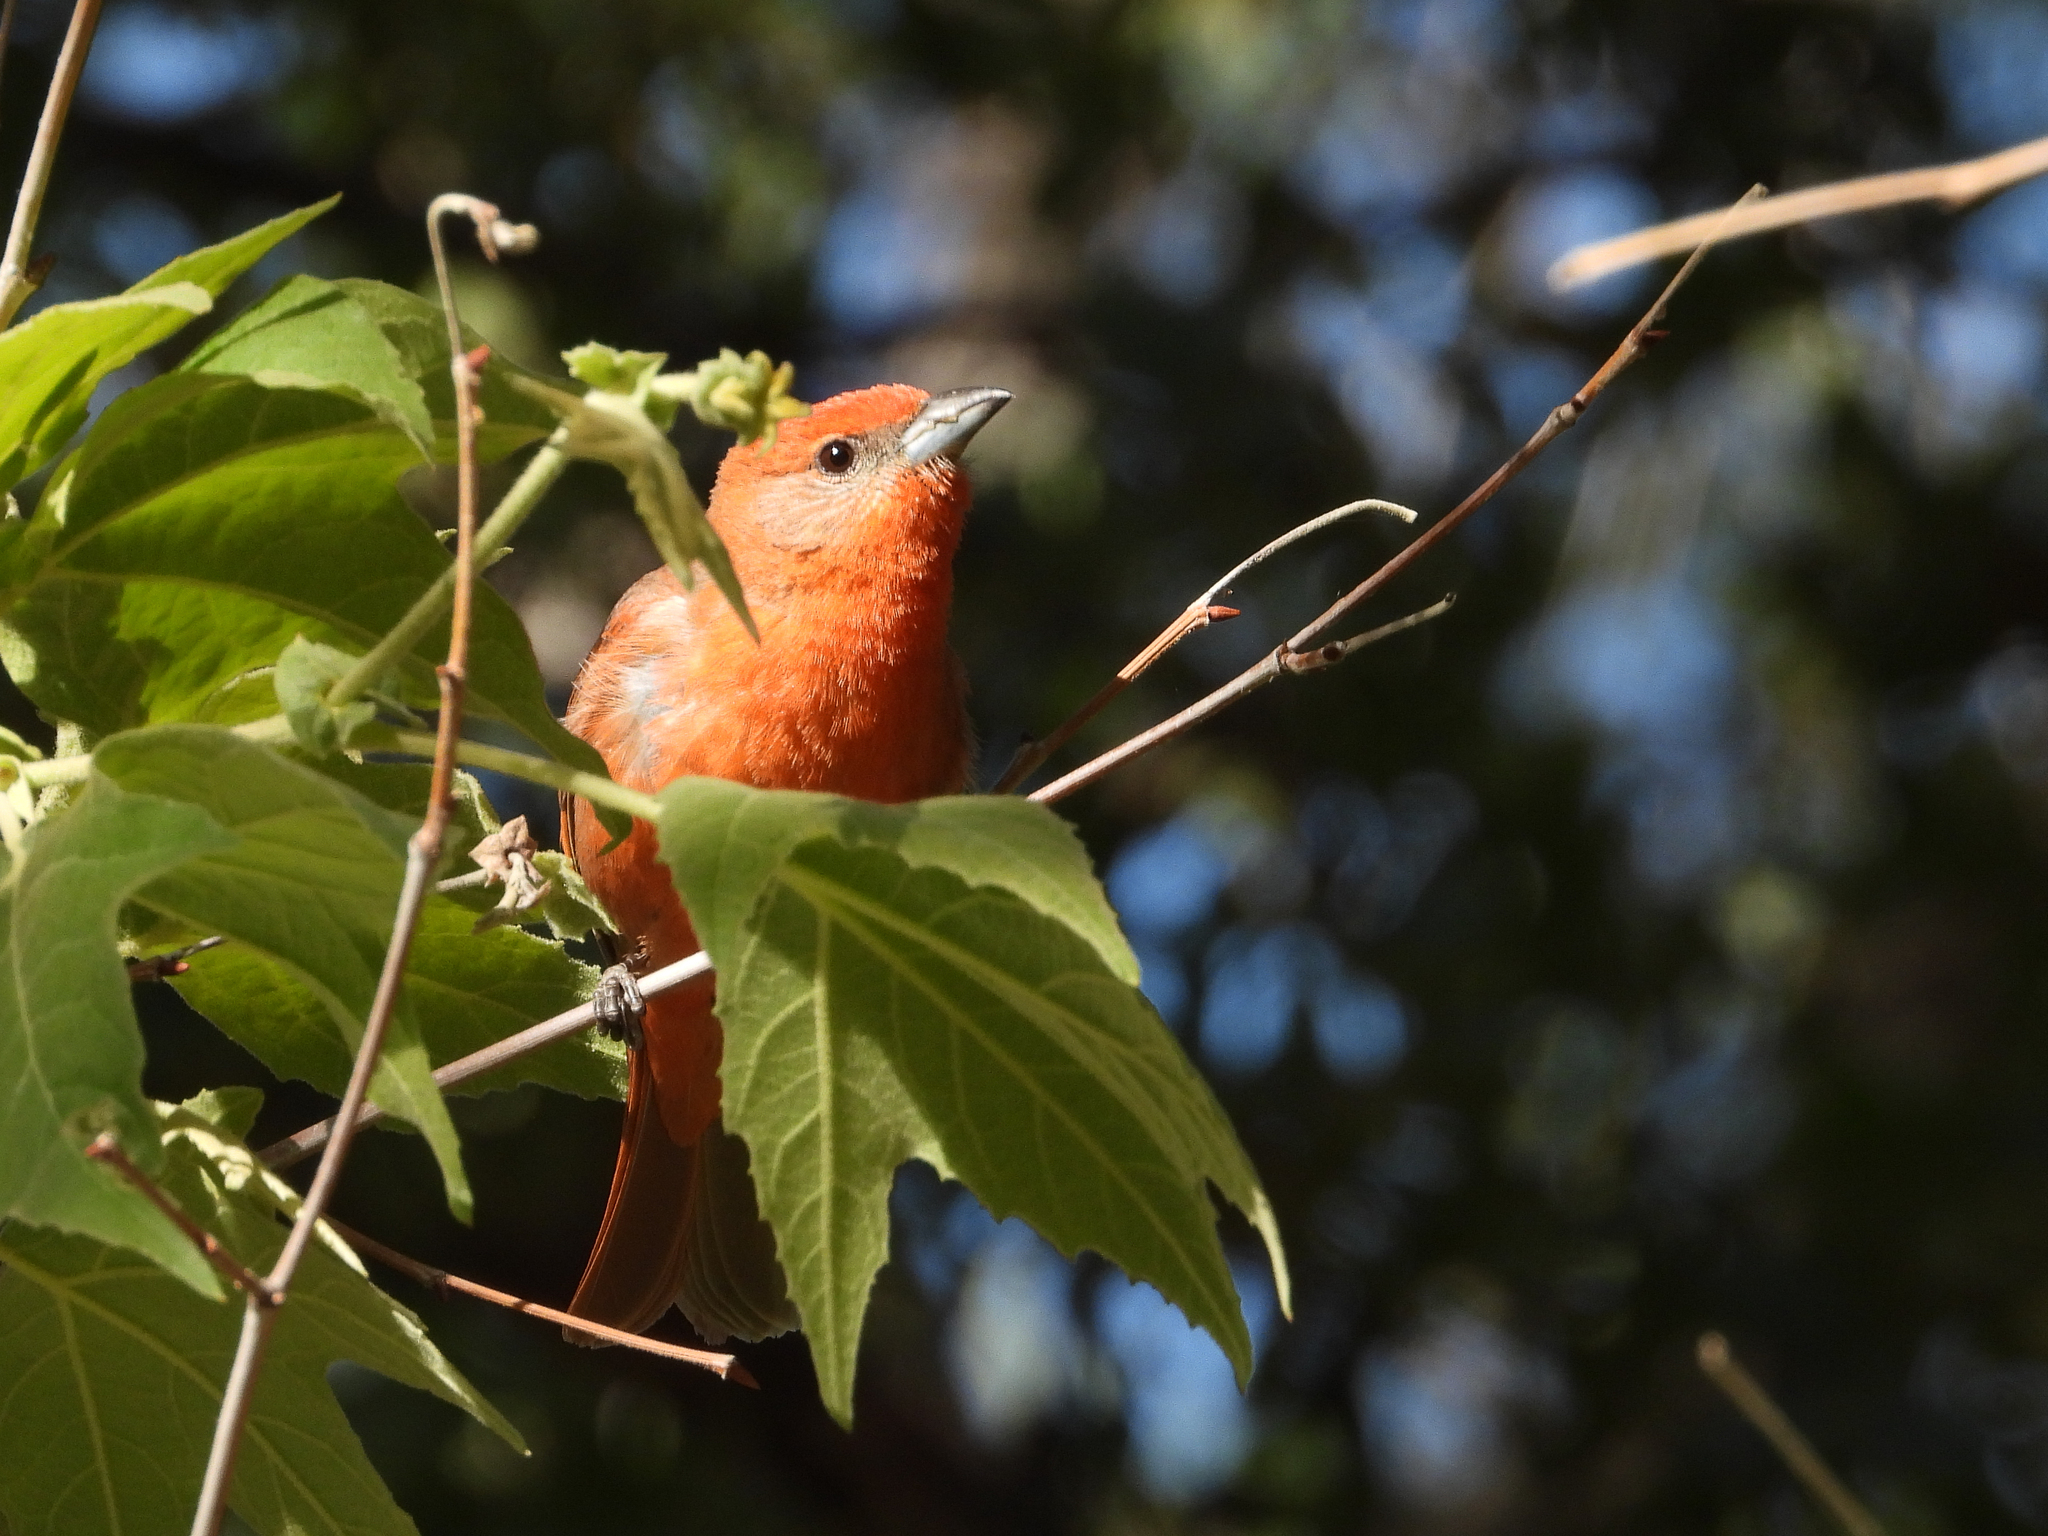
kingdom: Animalia
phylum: Chordata
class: Aves
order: Passeriformes
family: Cardinalidae
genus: Piranga
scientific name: Piranga flava
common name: Red tanager
